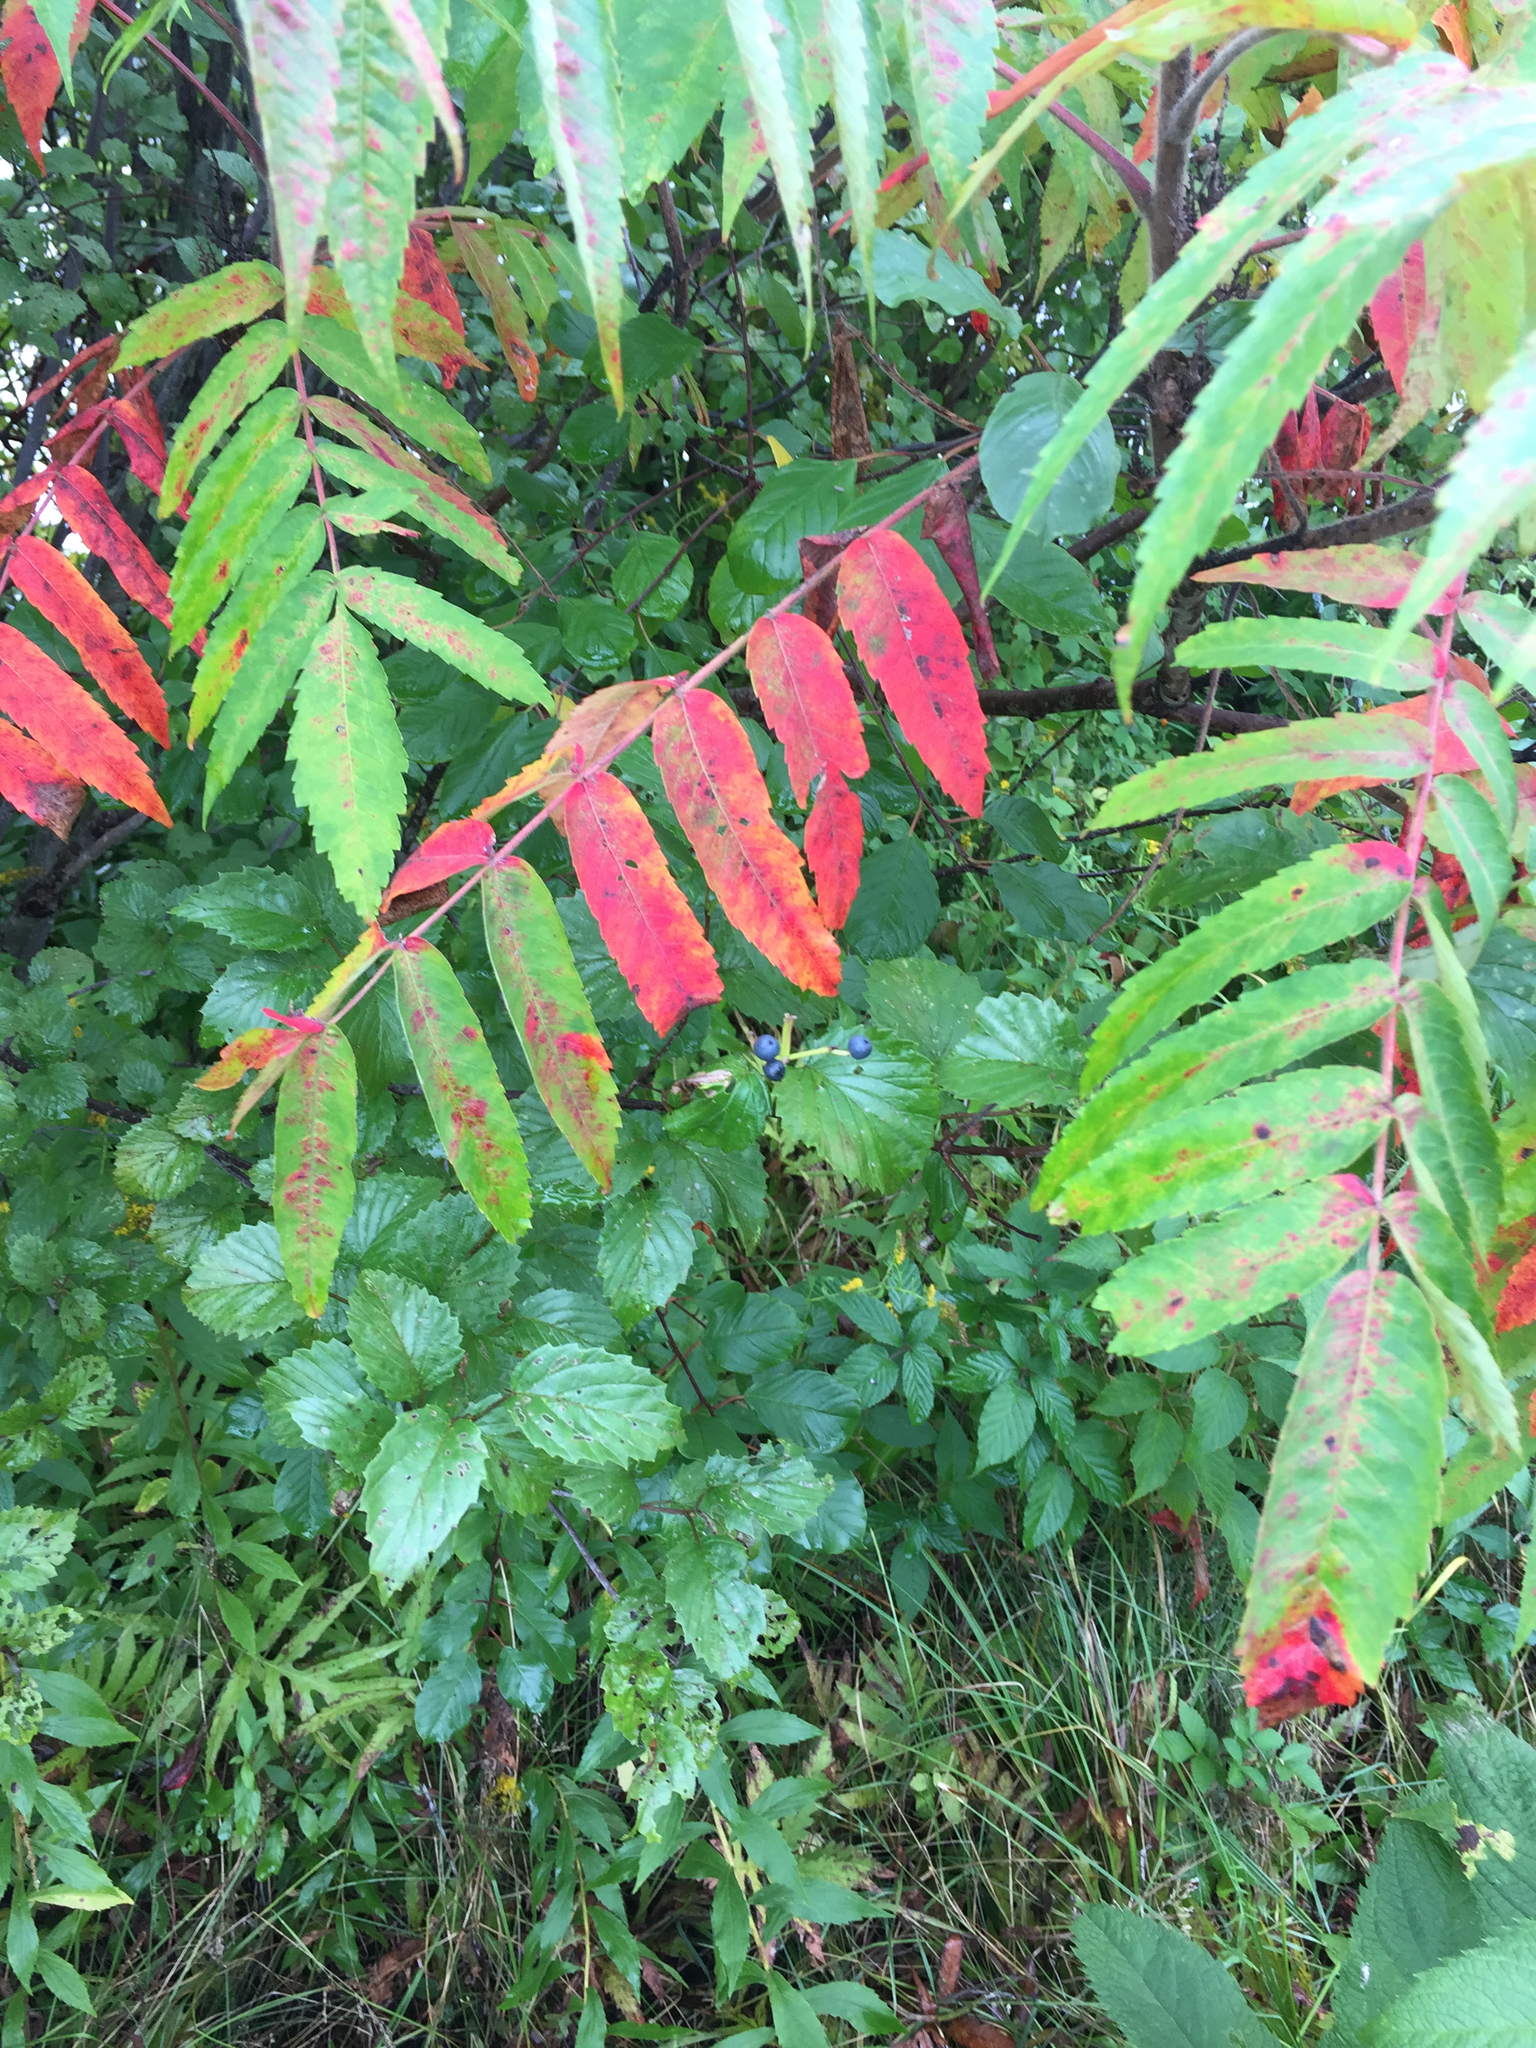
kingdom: Plantae
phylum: Tracheophyta
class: Magnoliopsida
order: Sapindales
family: Anacardiaceae
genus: Rhus
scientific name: Rhus typhina
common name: Staghorn sumac
